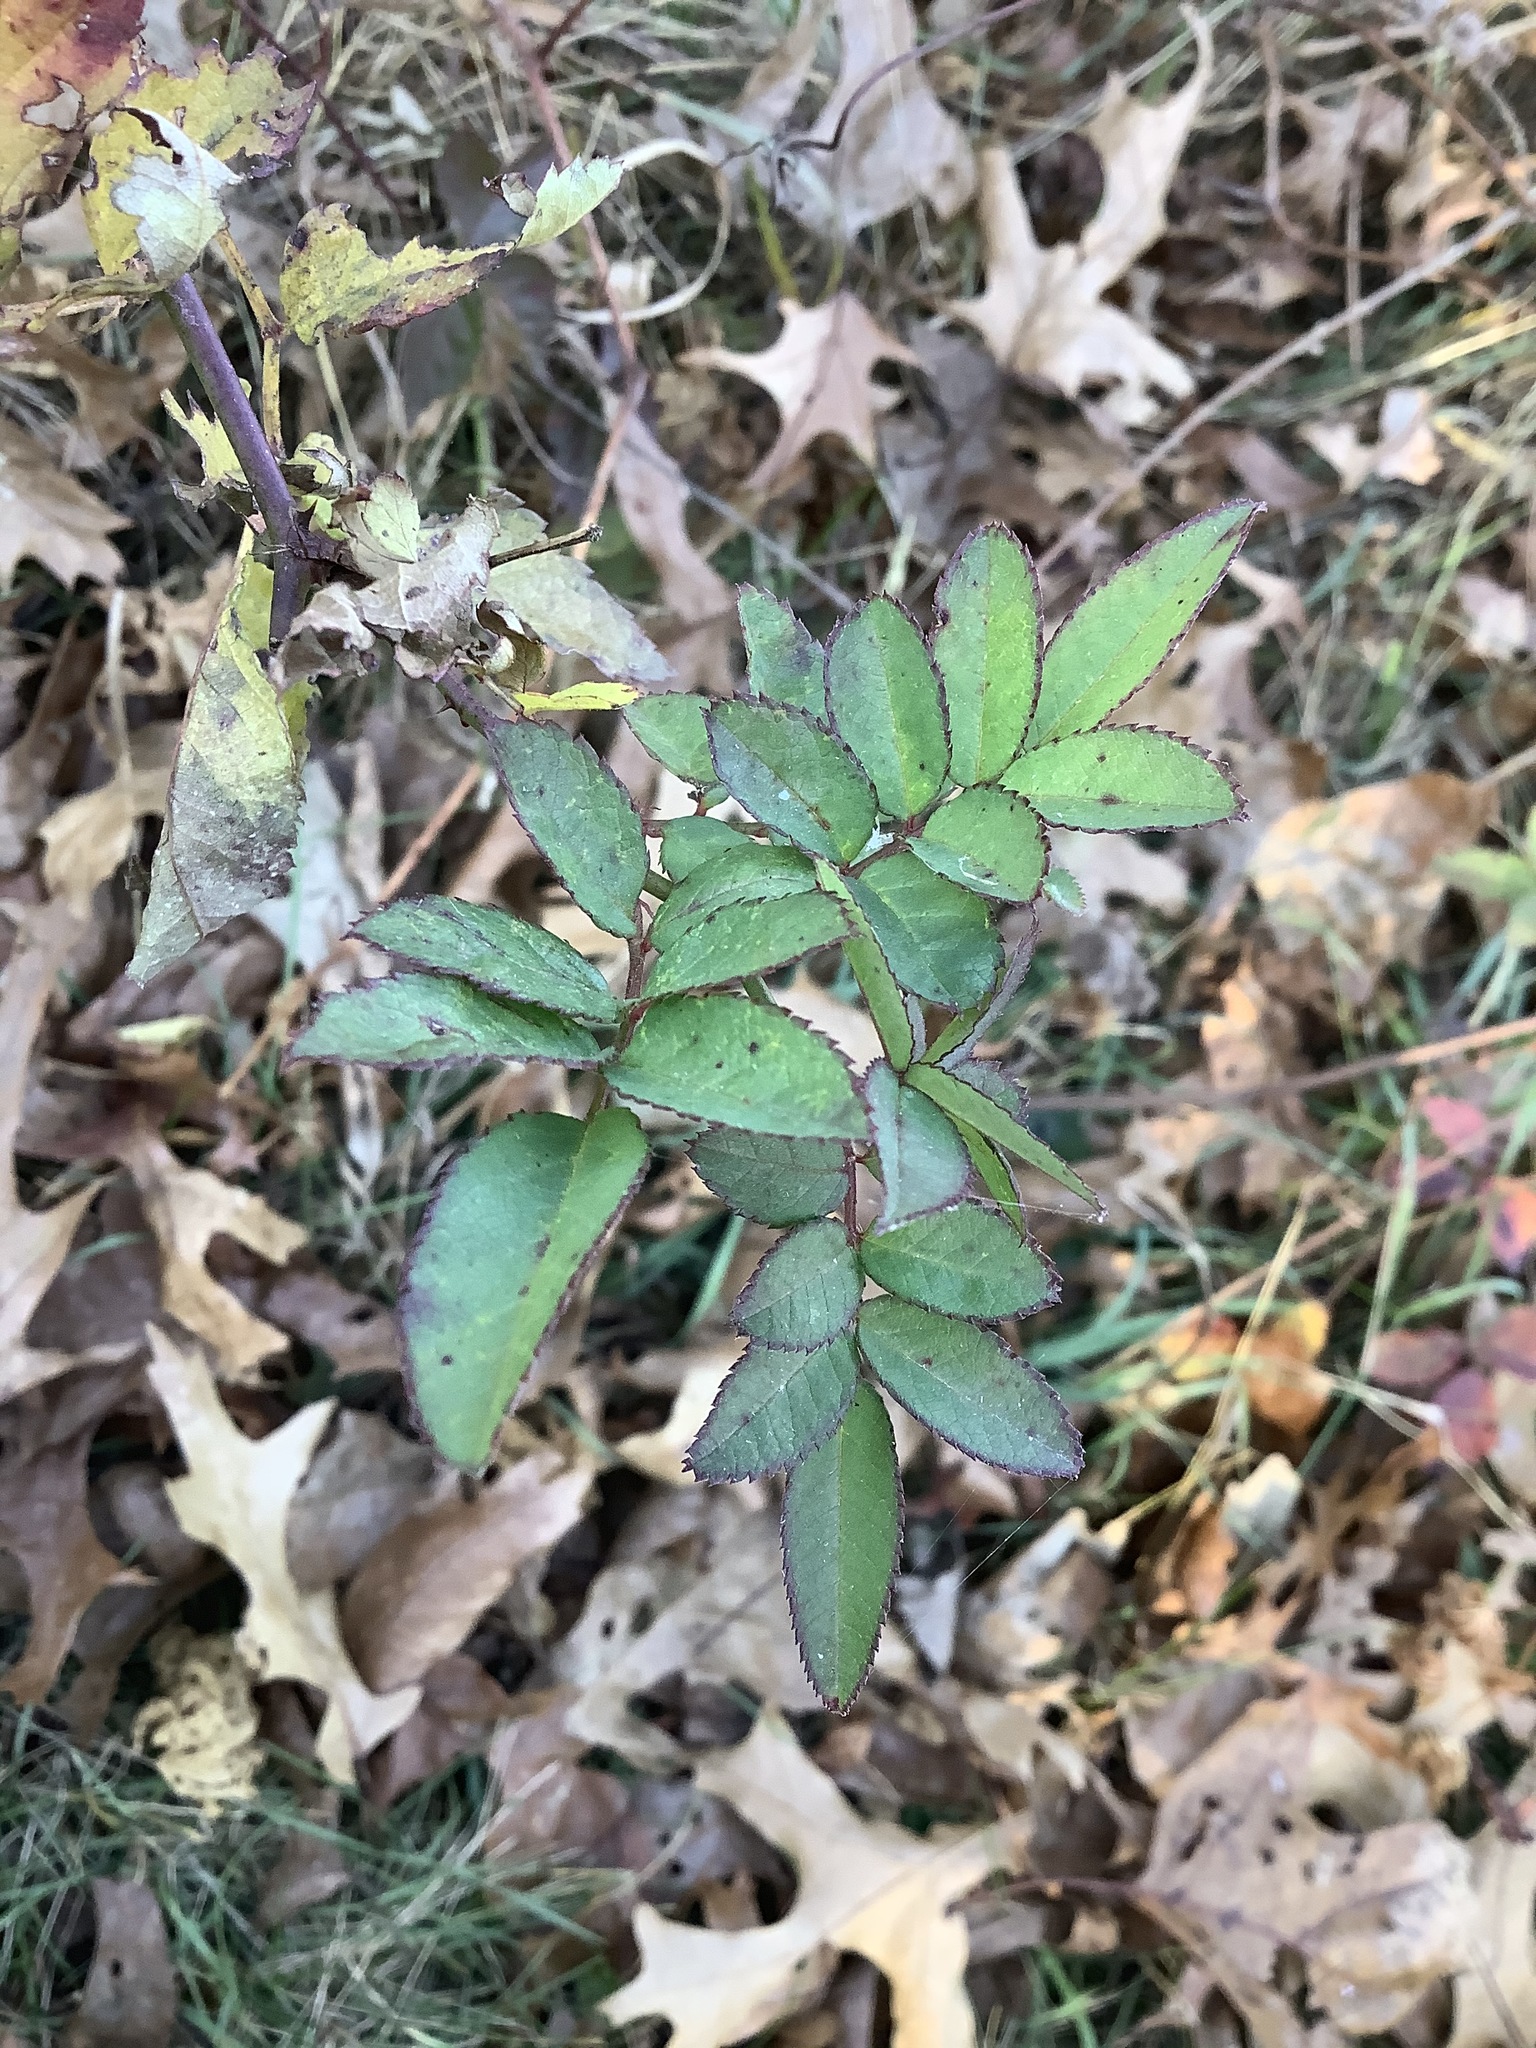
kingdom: Plantae
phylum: Tracheophyta
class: Magnoliopsida
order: Rosales
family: Rosaceae
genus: Rosa
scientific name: Rosa multiflora
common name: Multiflora rose
